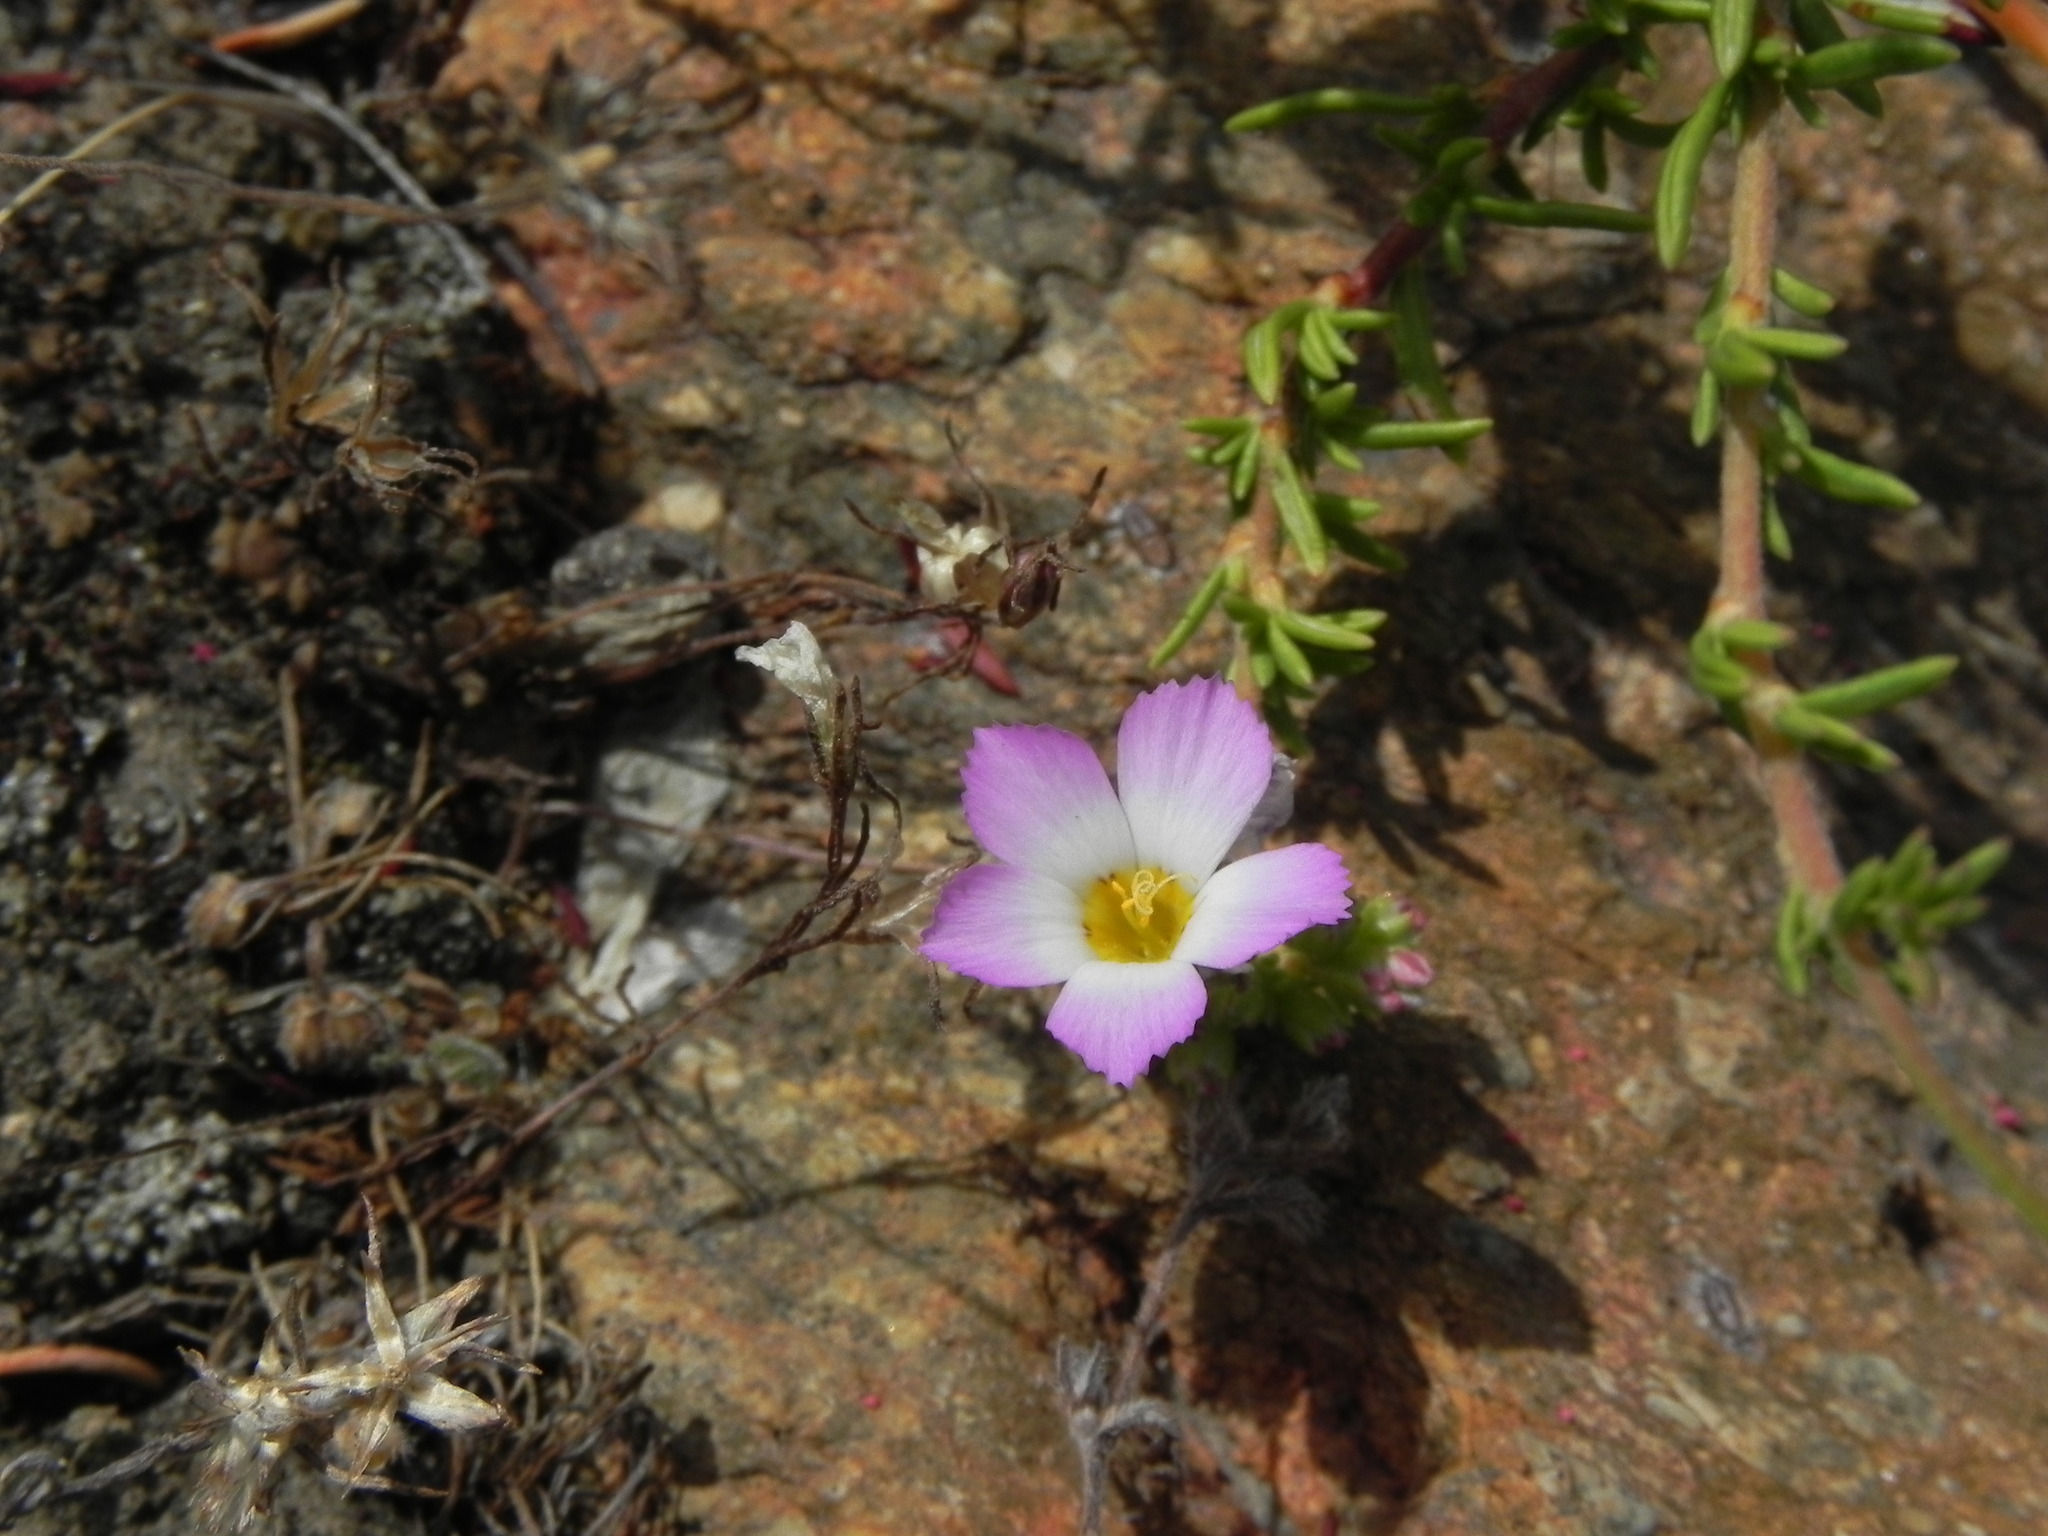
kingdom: Plantae
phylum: Tracheophyta
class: Magnoliopsida
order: Ericales
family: Polemoniaceae
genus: Linanthus
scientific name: Linanthus dianthiflorus
